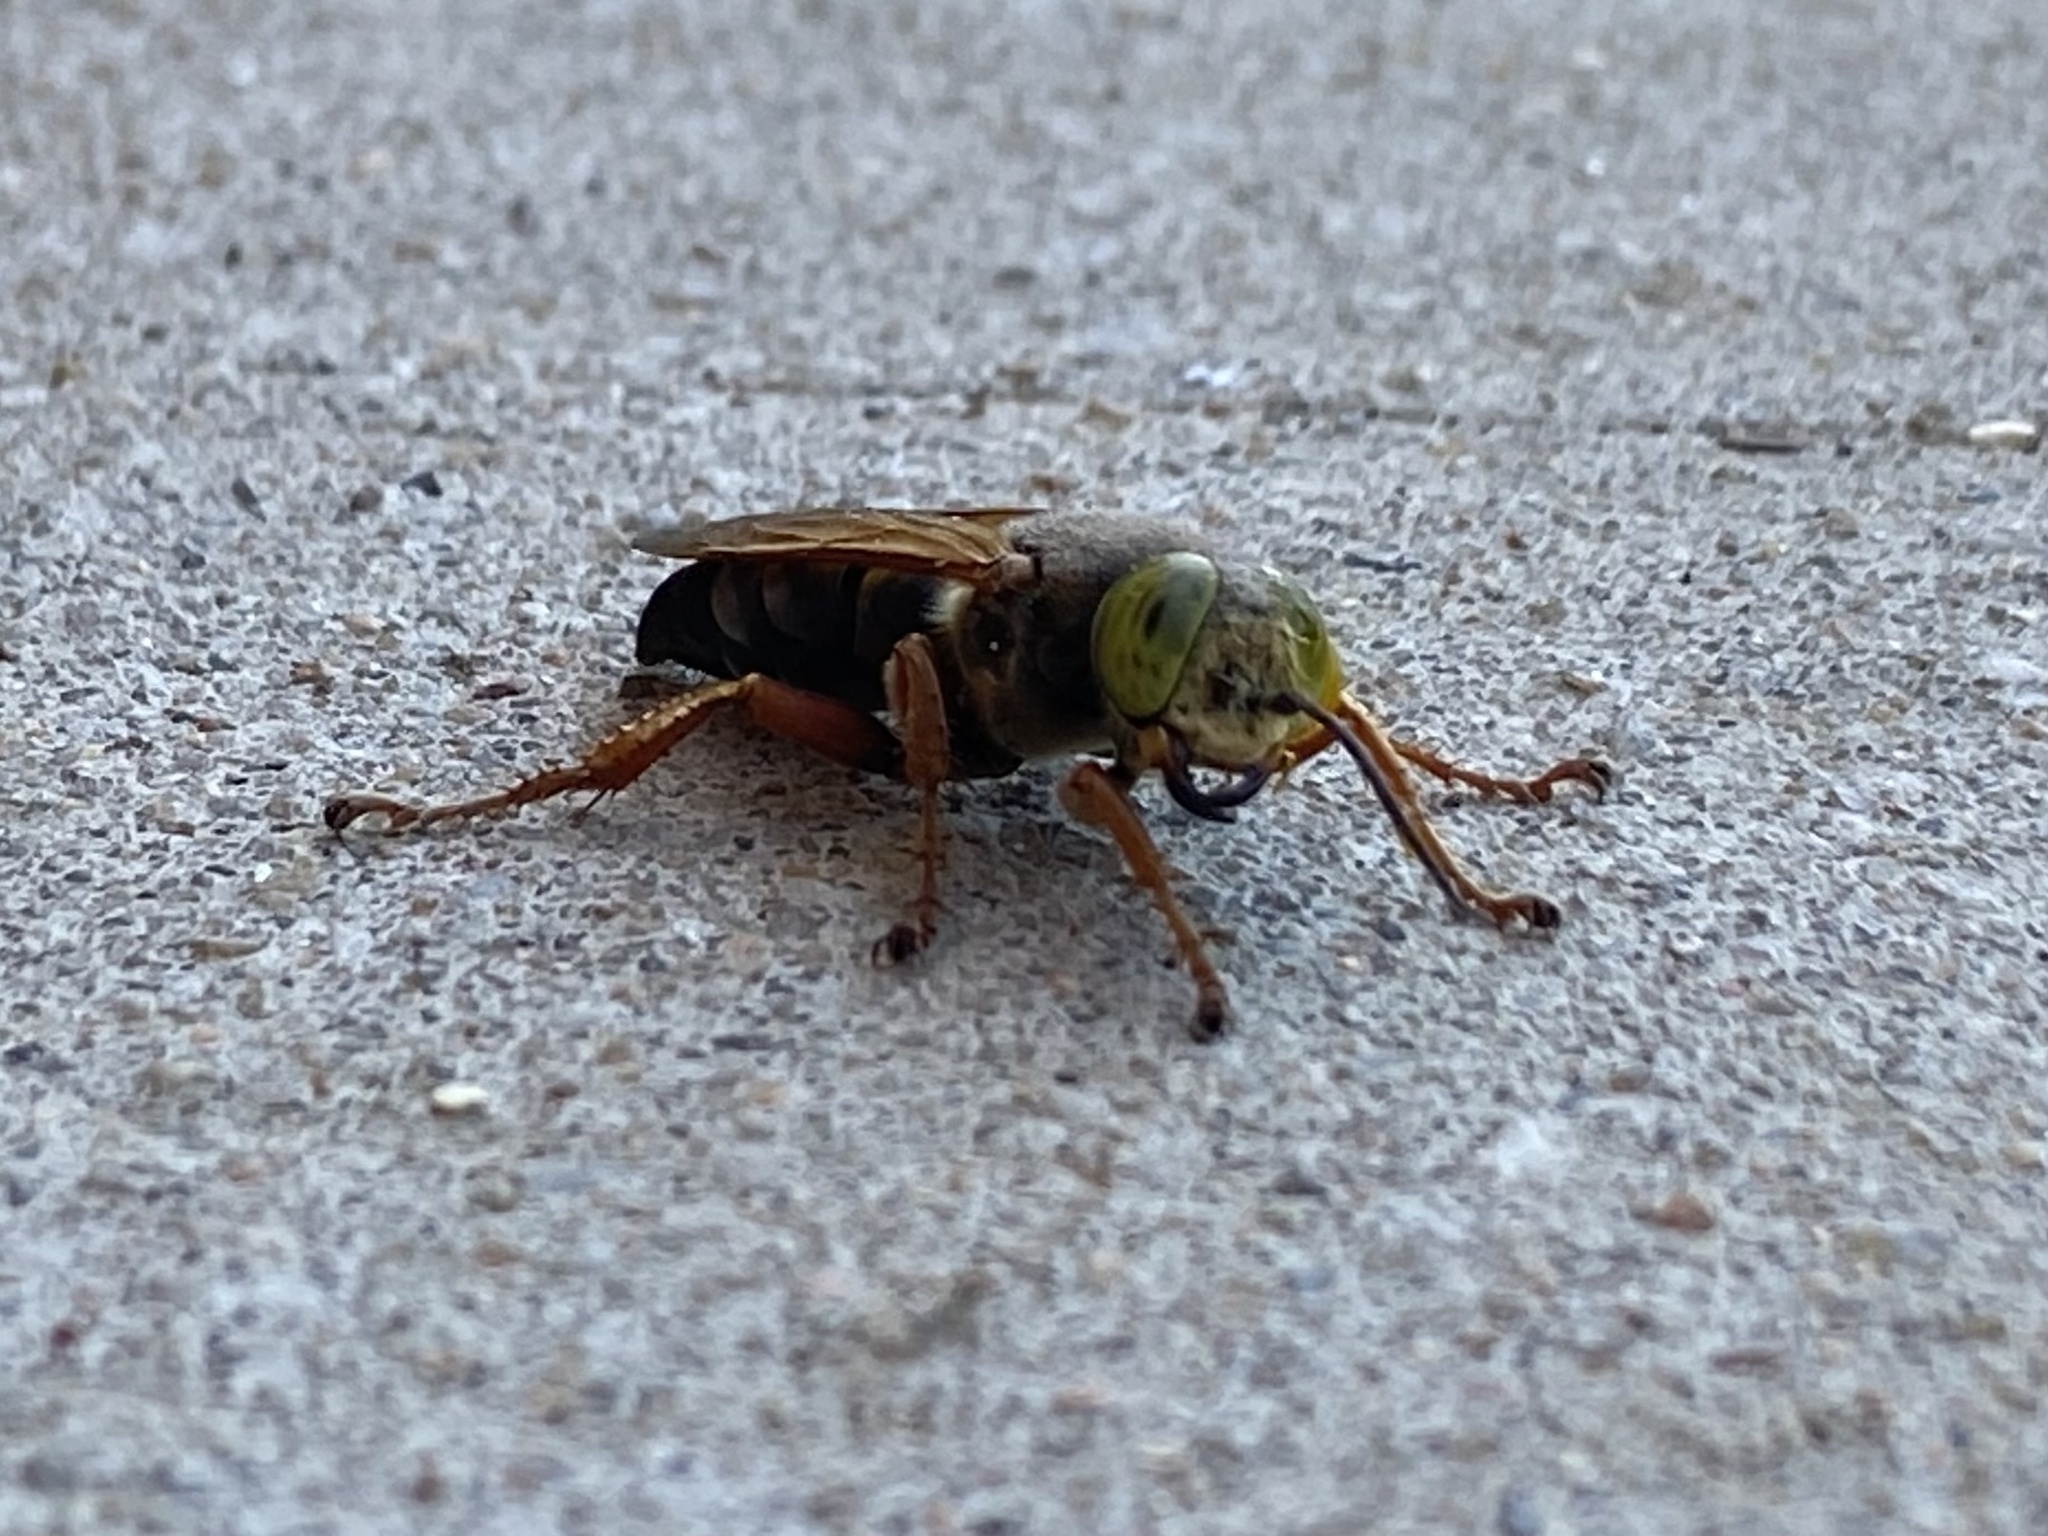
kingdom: Animalia
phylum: Arthropoda
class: Insecta
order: Hymenoptera
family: Crabronidae
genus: Tachytes
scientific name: Tachytes
